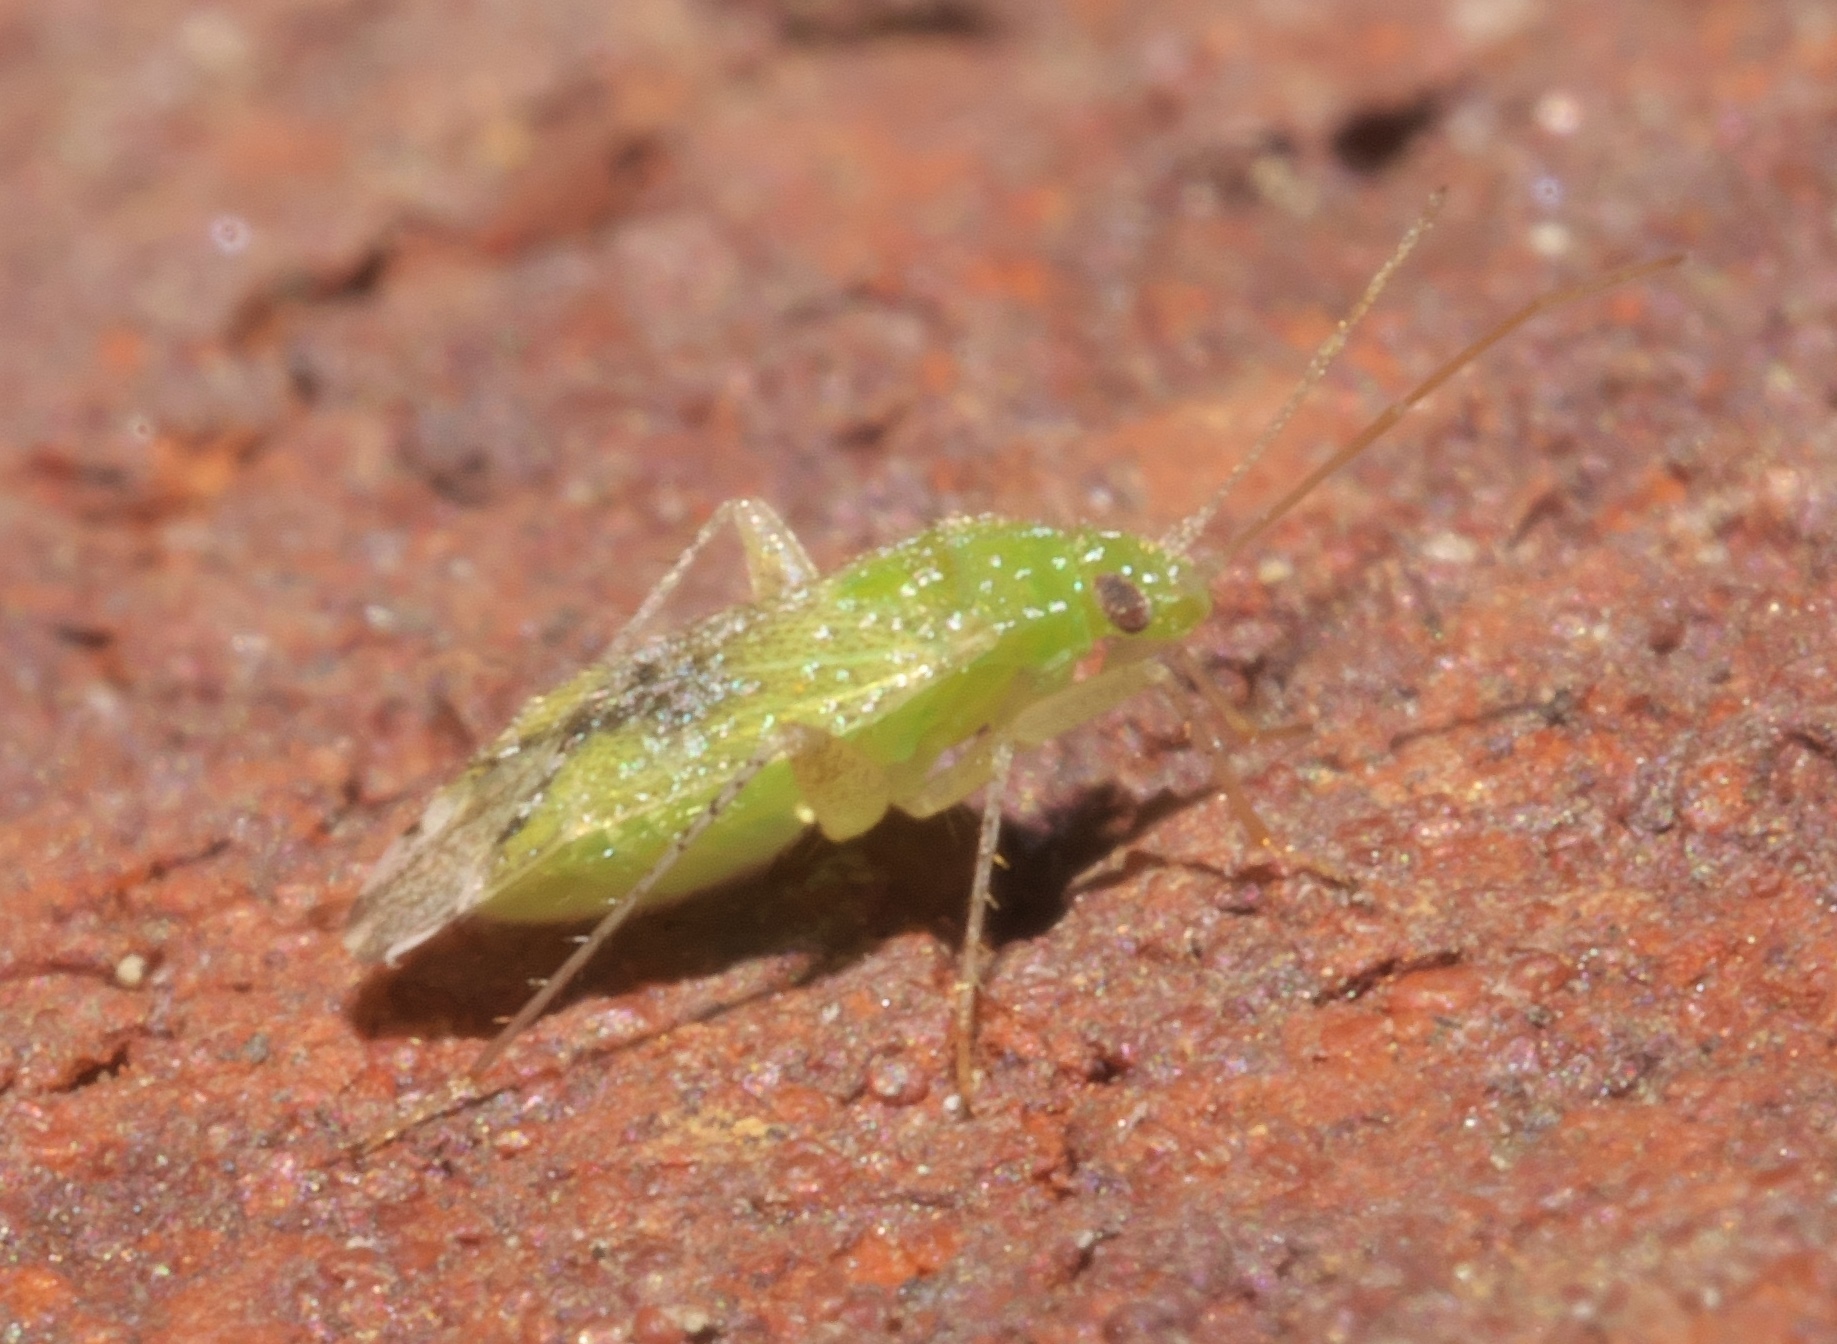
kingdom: Animalia
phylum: Arthropoda
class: Insecta
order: Hemiptera
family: Miridae
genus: Keltonia
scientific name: Keltonia tuckeri
